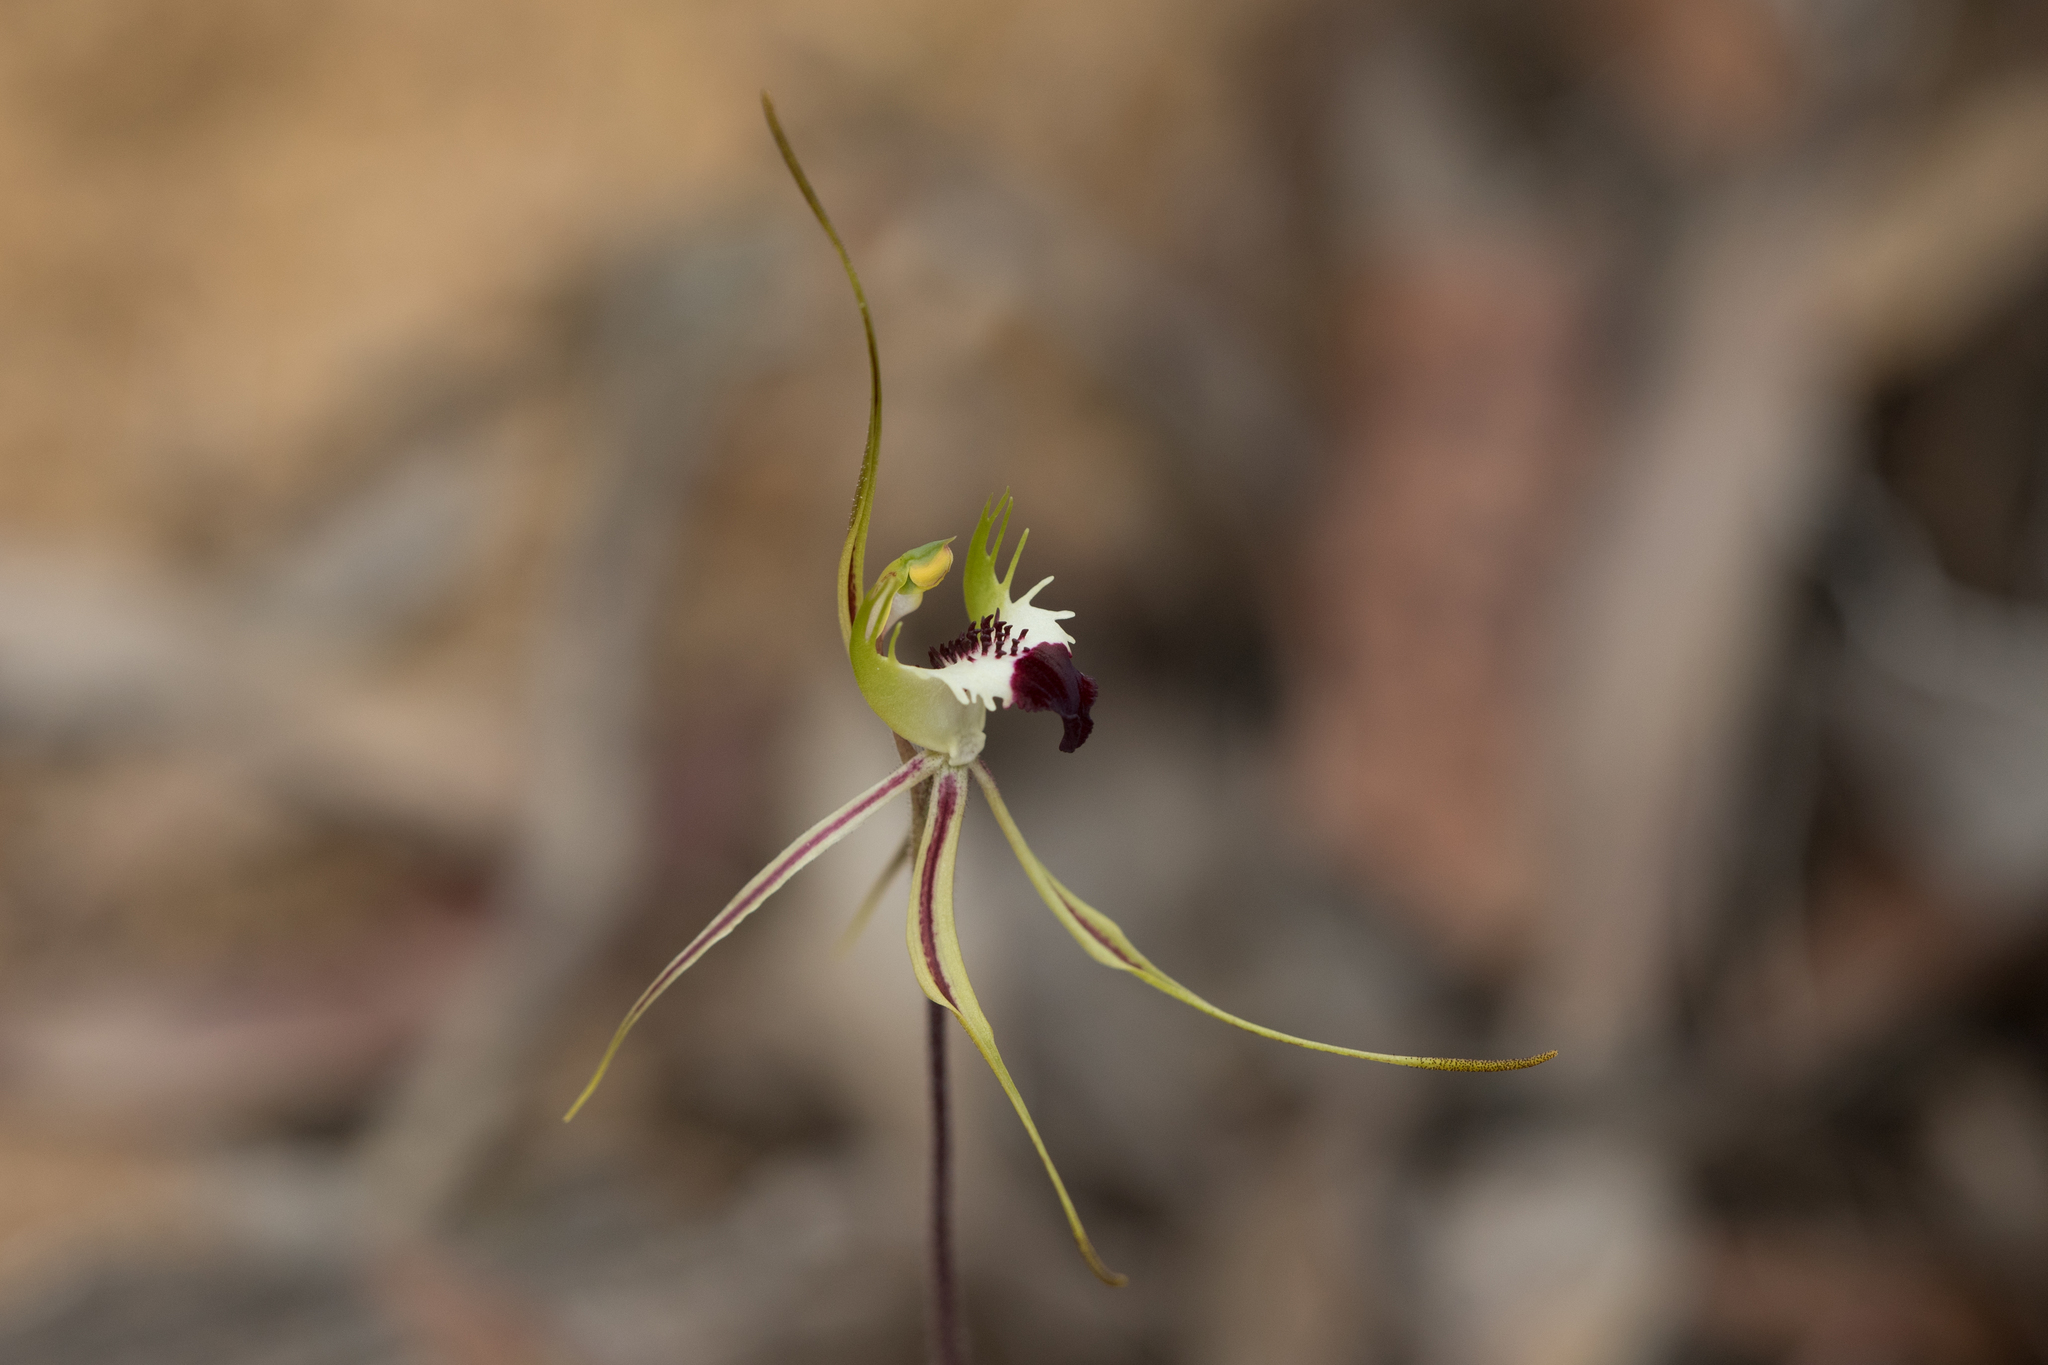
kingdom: Plantae
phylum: Tracheophyta
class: Liliopsida
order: Asparagales
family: Orchidaceae
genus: Caladenia
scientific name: Caladenia tentaculata
